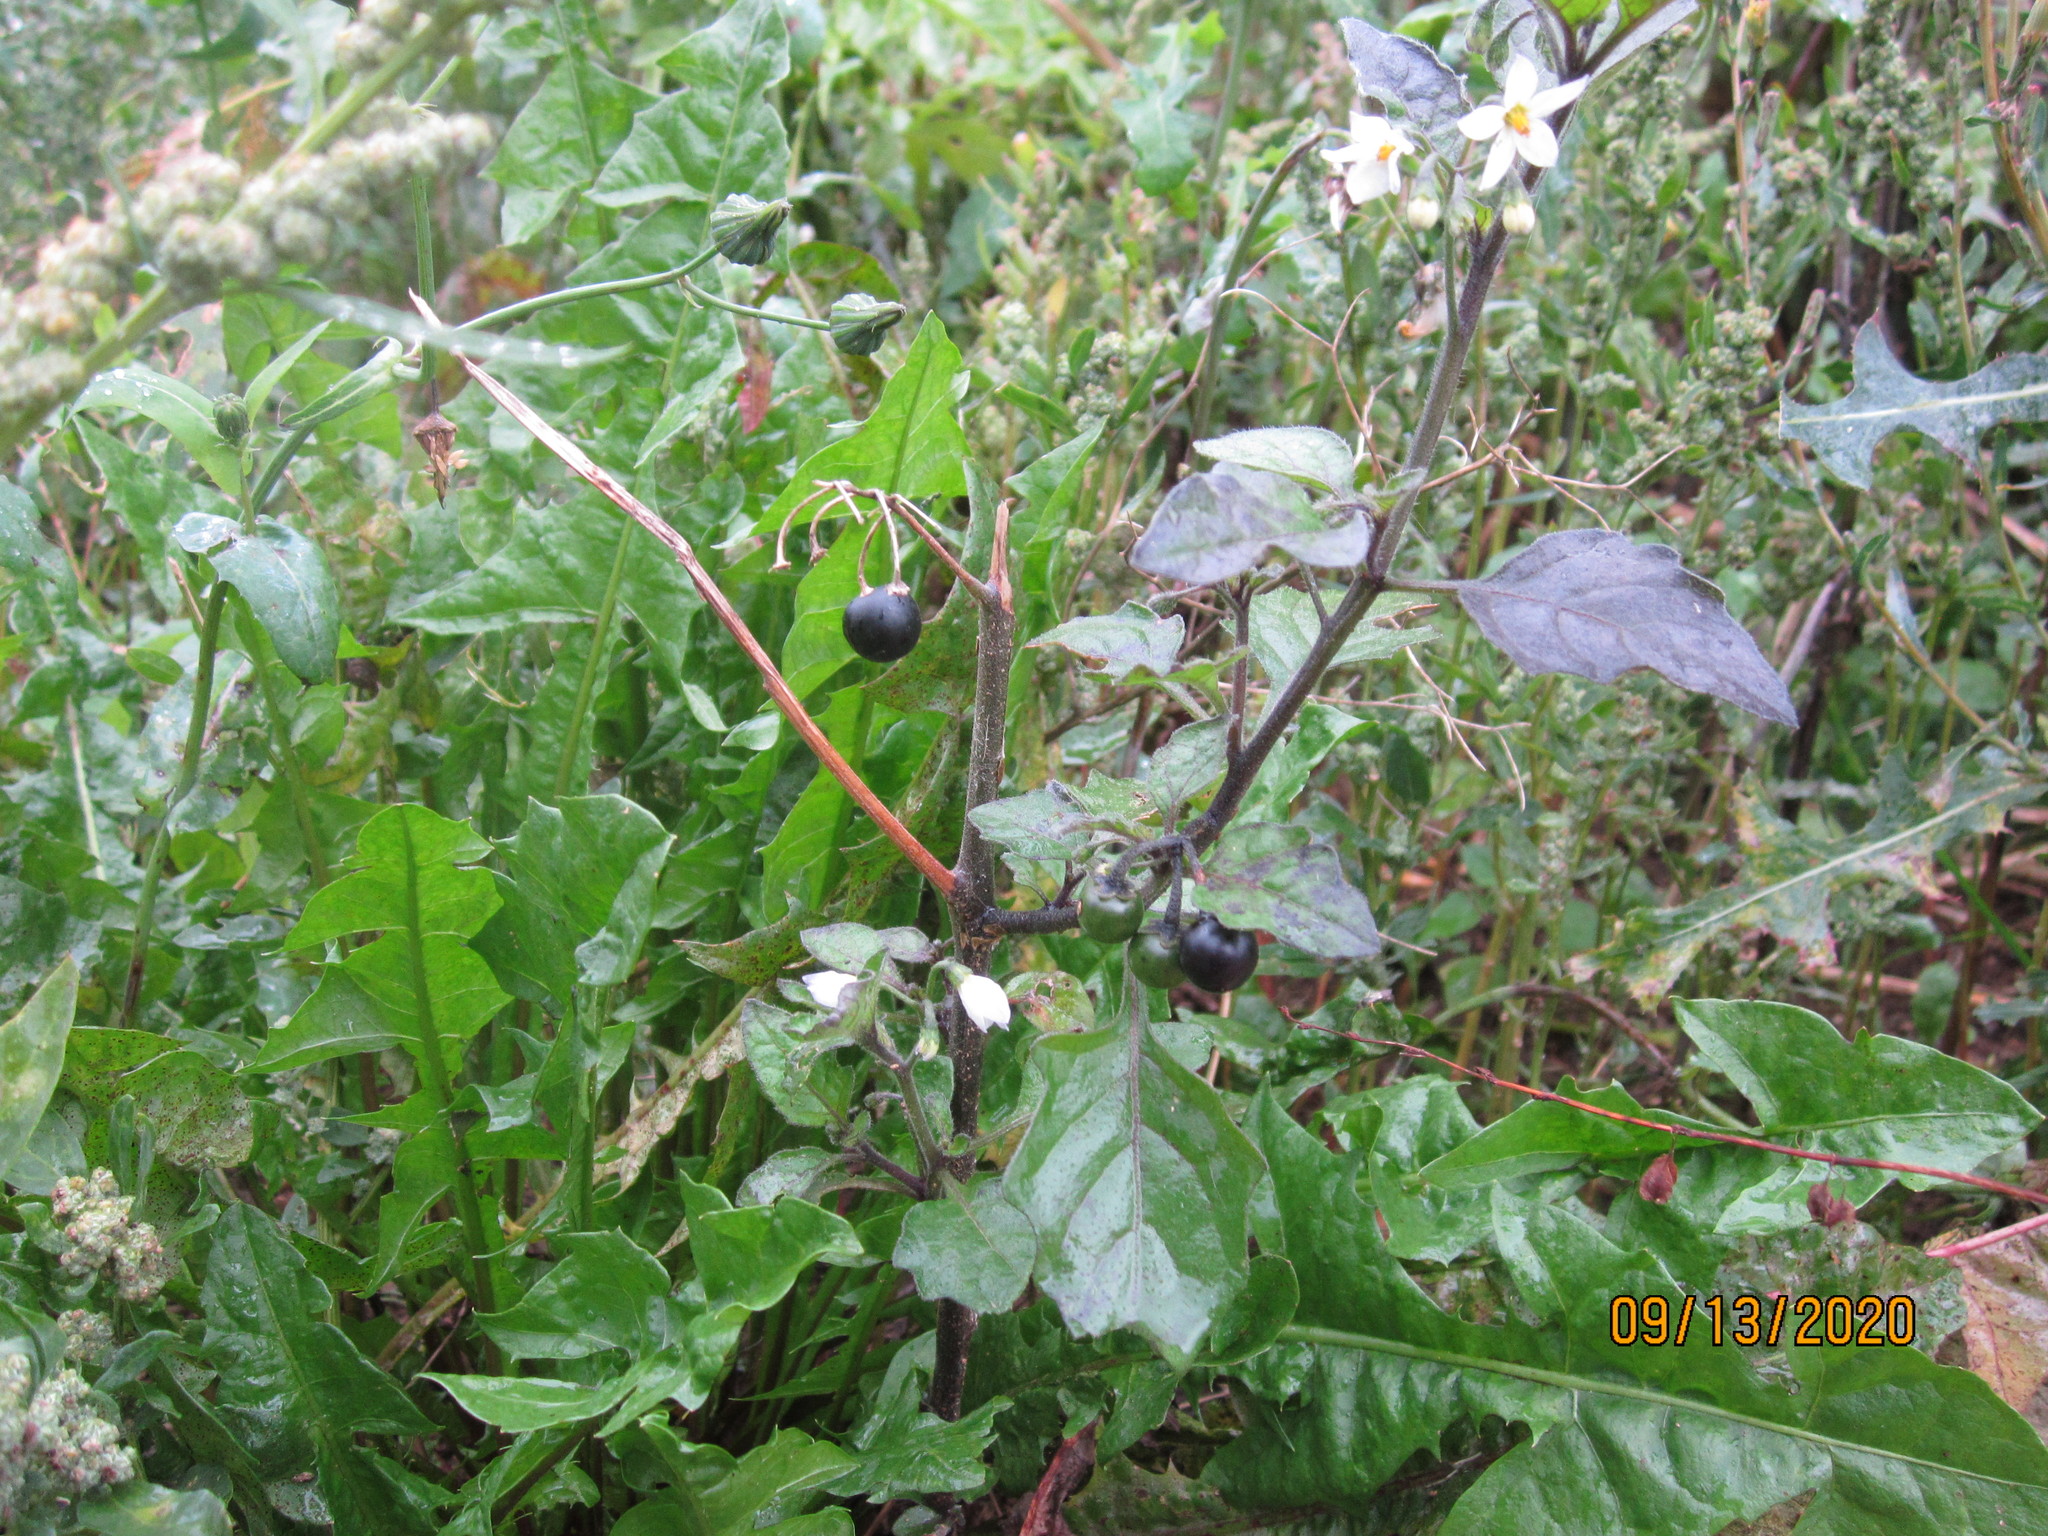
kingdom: Plantae
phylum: Tracheophyta
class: Magnoliopsida
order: Solanales
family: Solanaceae
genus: Solanum
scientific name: Solanum nigrum
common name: Black nightshade
